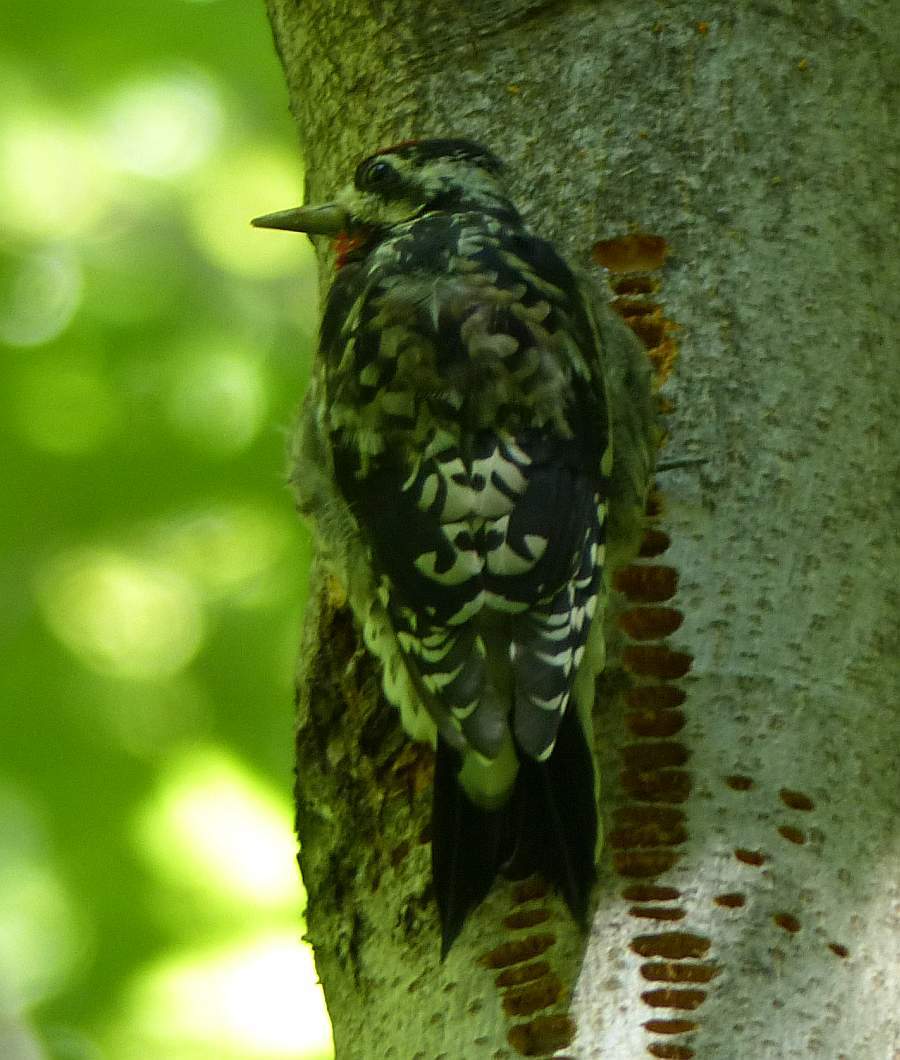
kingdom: Animalia
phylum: Chordata
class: Aves
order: Piciformes
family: Picidae
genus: Sphyrapicus
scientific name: Sphyrapicus varius
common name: Yellow-bellied sapsucker
